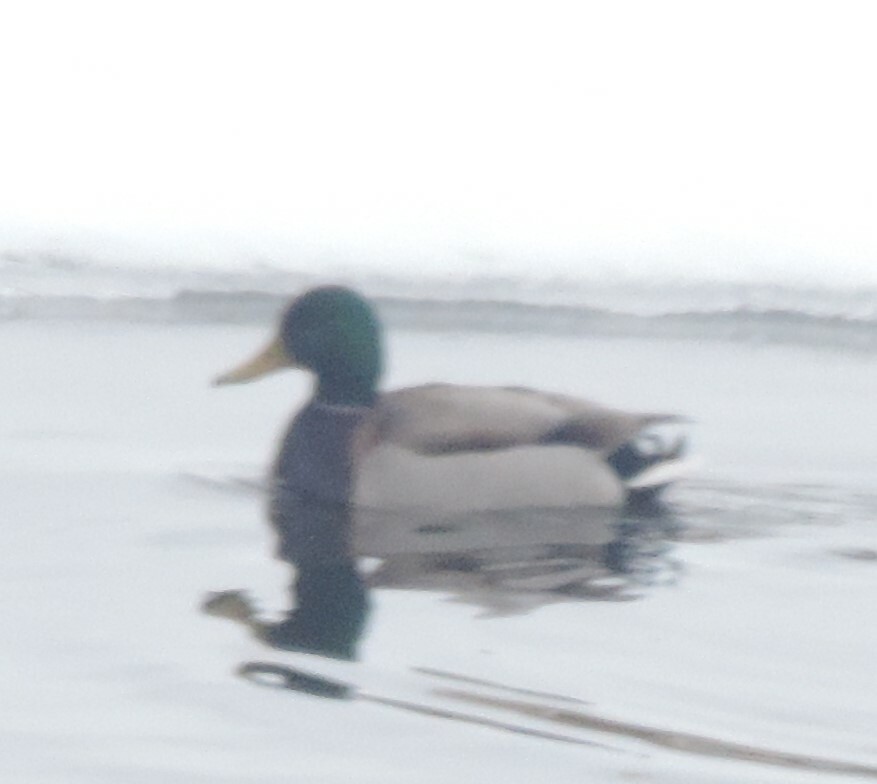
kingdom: Animalia
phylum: Chordata
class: Aves
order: Anseriformes
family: Anatidae
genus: Anas
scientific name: Anas platyrhynchos
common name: Mallard
